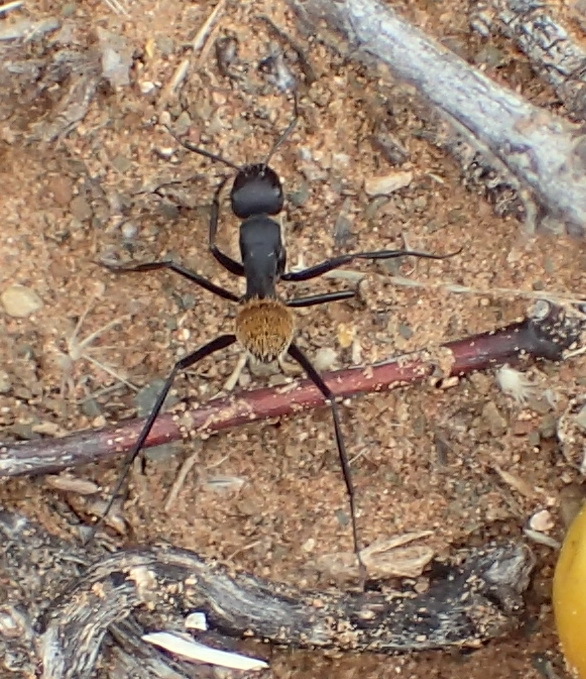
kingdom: Animalia
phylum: Arthropoda
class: Insecta
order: Hymenoptera
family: Formicidae
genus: Camponotus
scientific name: Camponotus fulvopilosus
